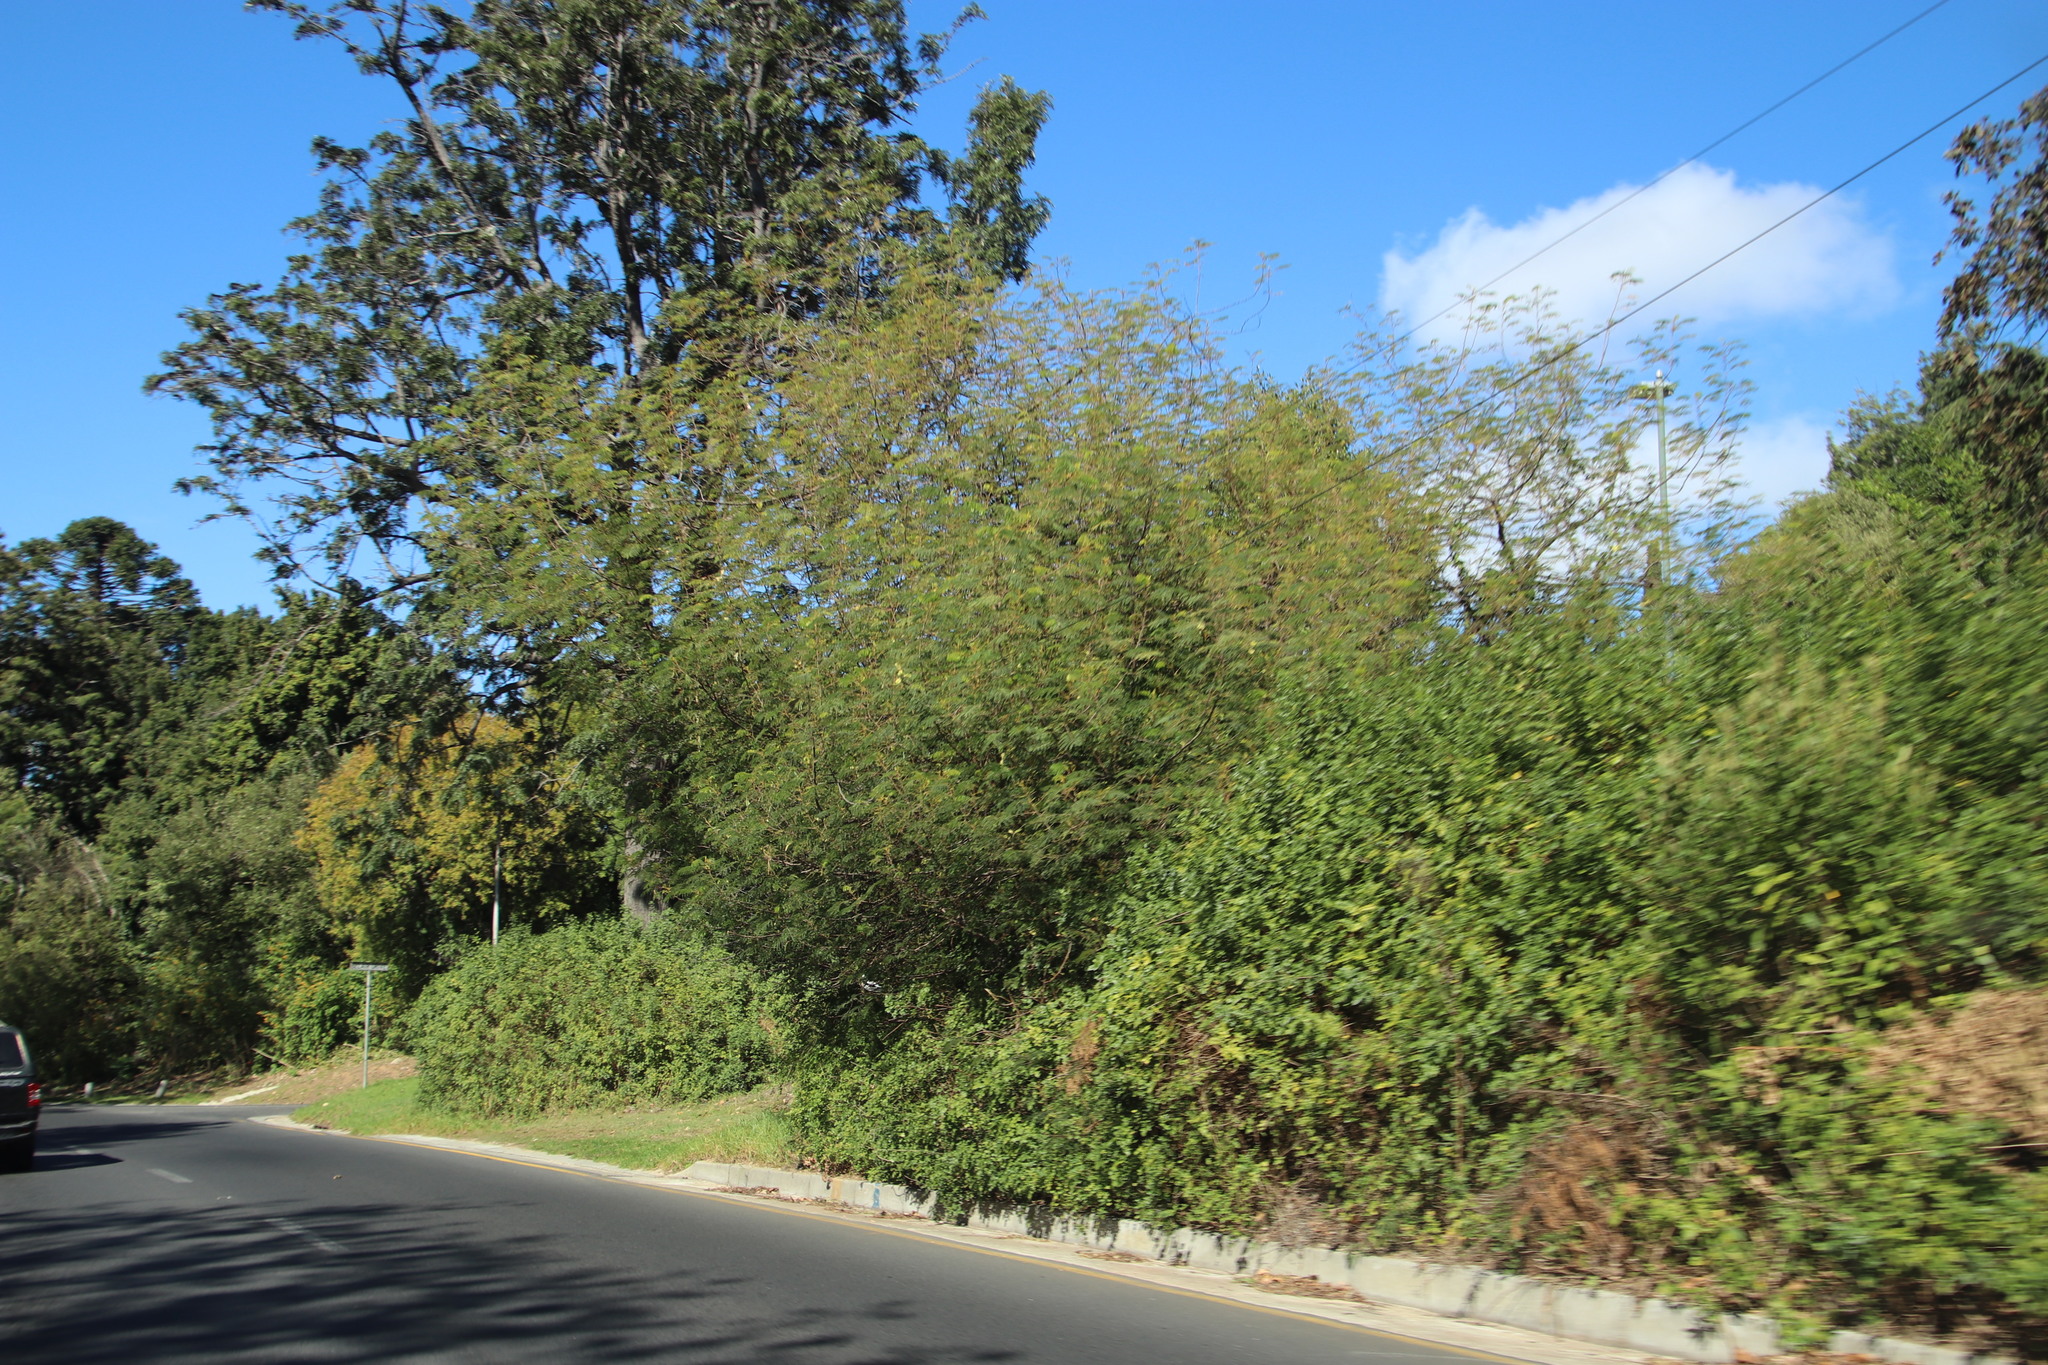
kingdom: Plantae
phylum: Tracheophyta
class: Magnoliopsida
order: Fabales
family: Fabaceae
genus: Paraserianthes
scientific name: Paraserianthes lophantha
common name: Plume albizia
